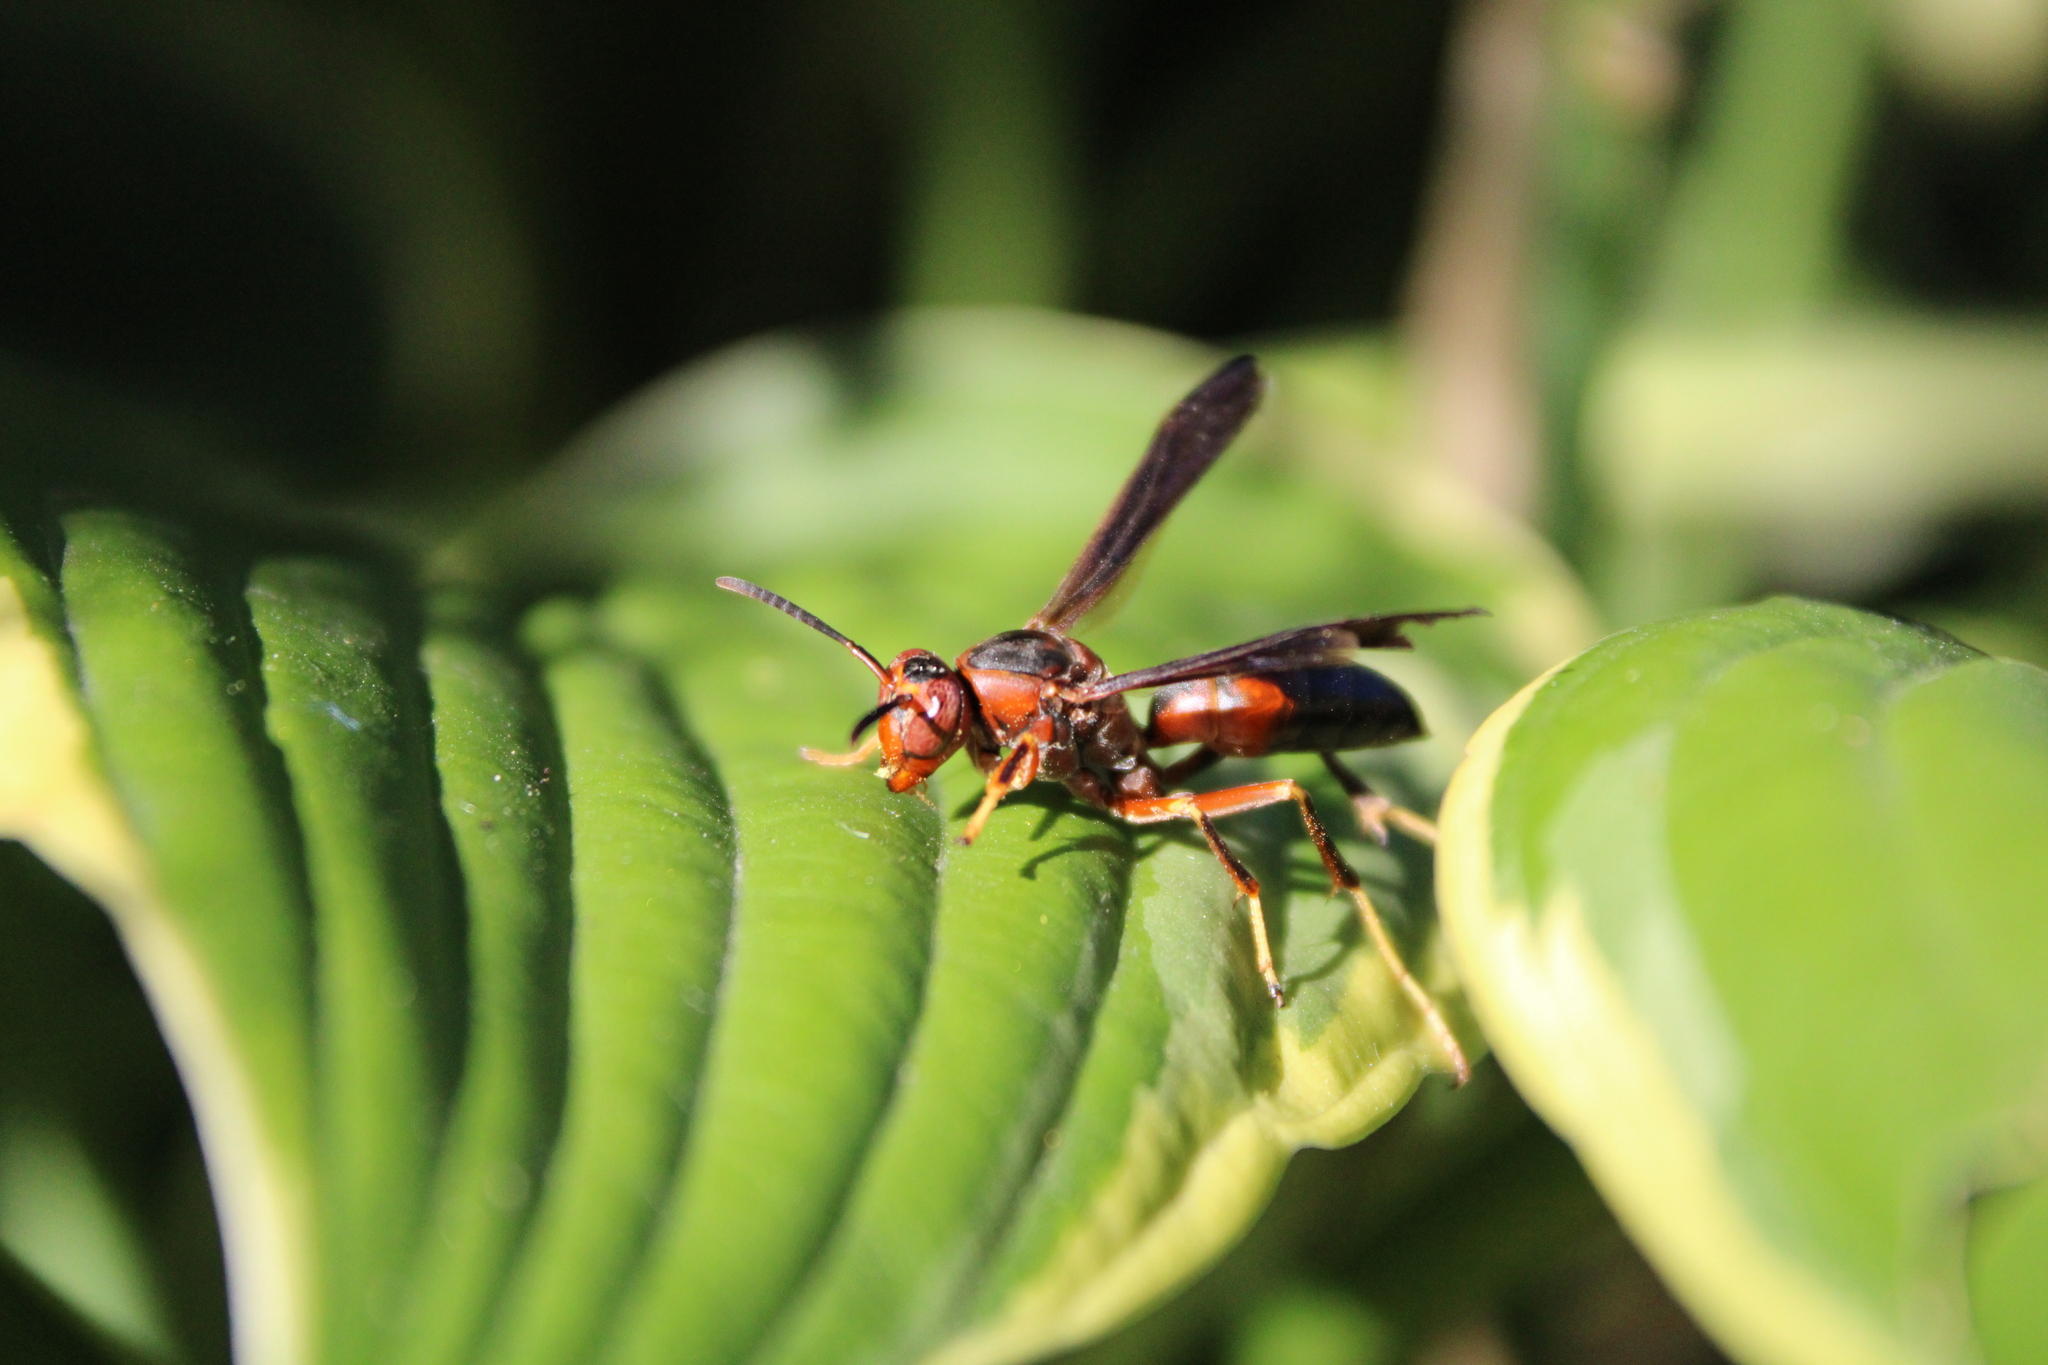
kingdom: Animalia
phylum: Arthropoda
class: Insecta
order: Hymenoptera
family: Eumenidae
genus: Polistes
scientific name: Polistes metricus
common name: Metric paper wasp
